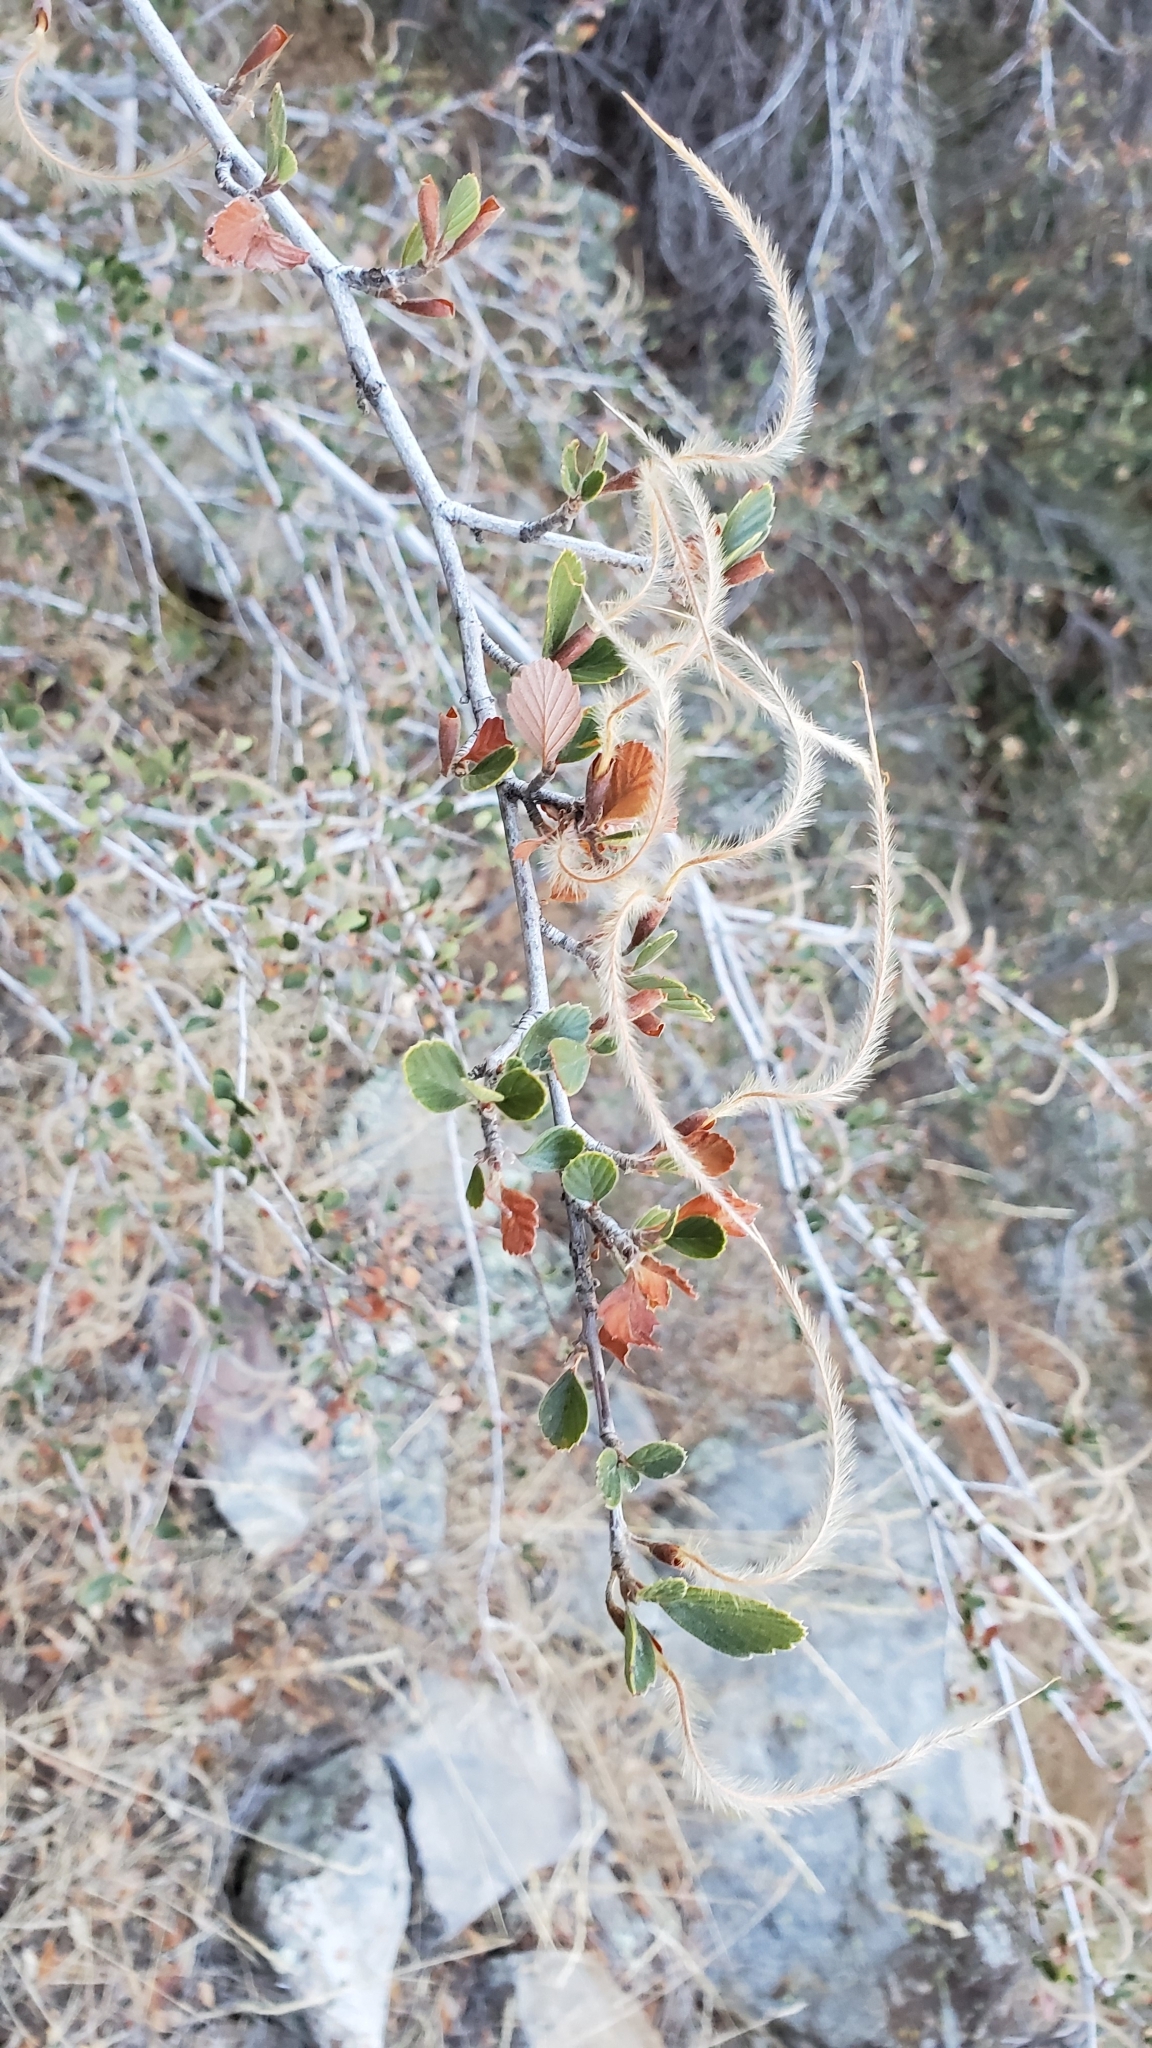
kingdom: Plantae
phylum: Tracheophyta
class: Magnoliopsida
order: Rosales
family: Rosaceae
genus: Cercocarpus
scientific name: Cercocarpus betuloides
